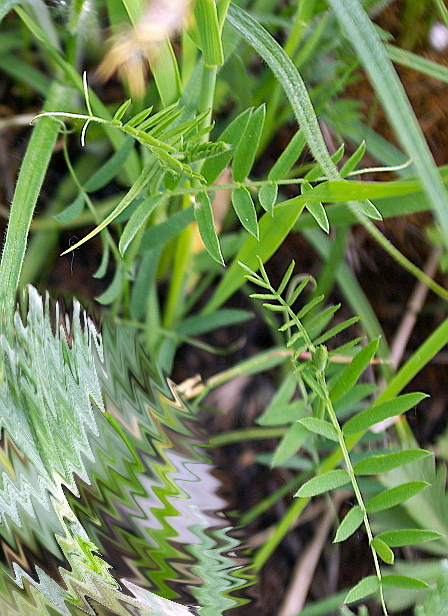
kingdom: Plantae
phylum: Tracheophyta
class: Magnoliopsida
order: Fabales
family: Fabaceae
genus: Vicia
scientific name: Vicia cracca
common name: Bird vetch
